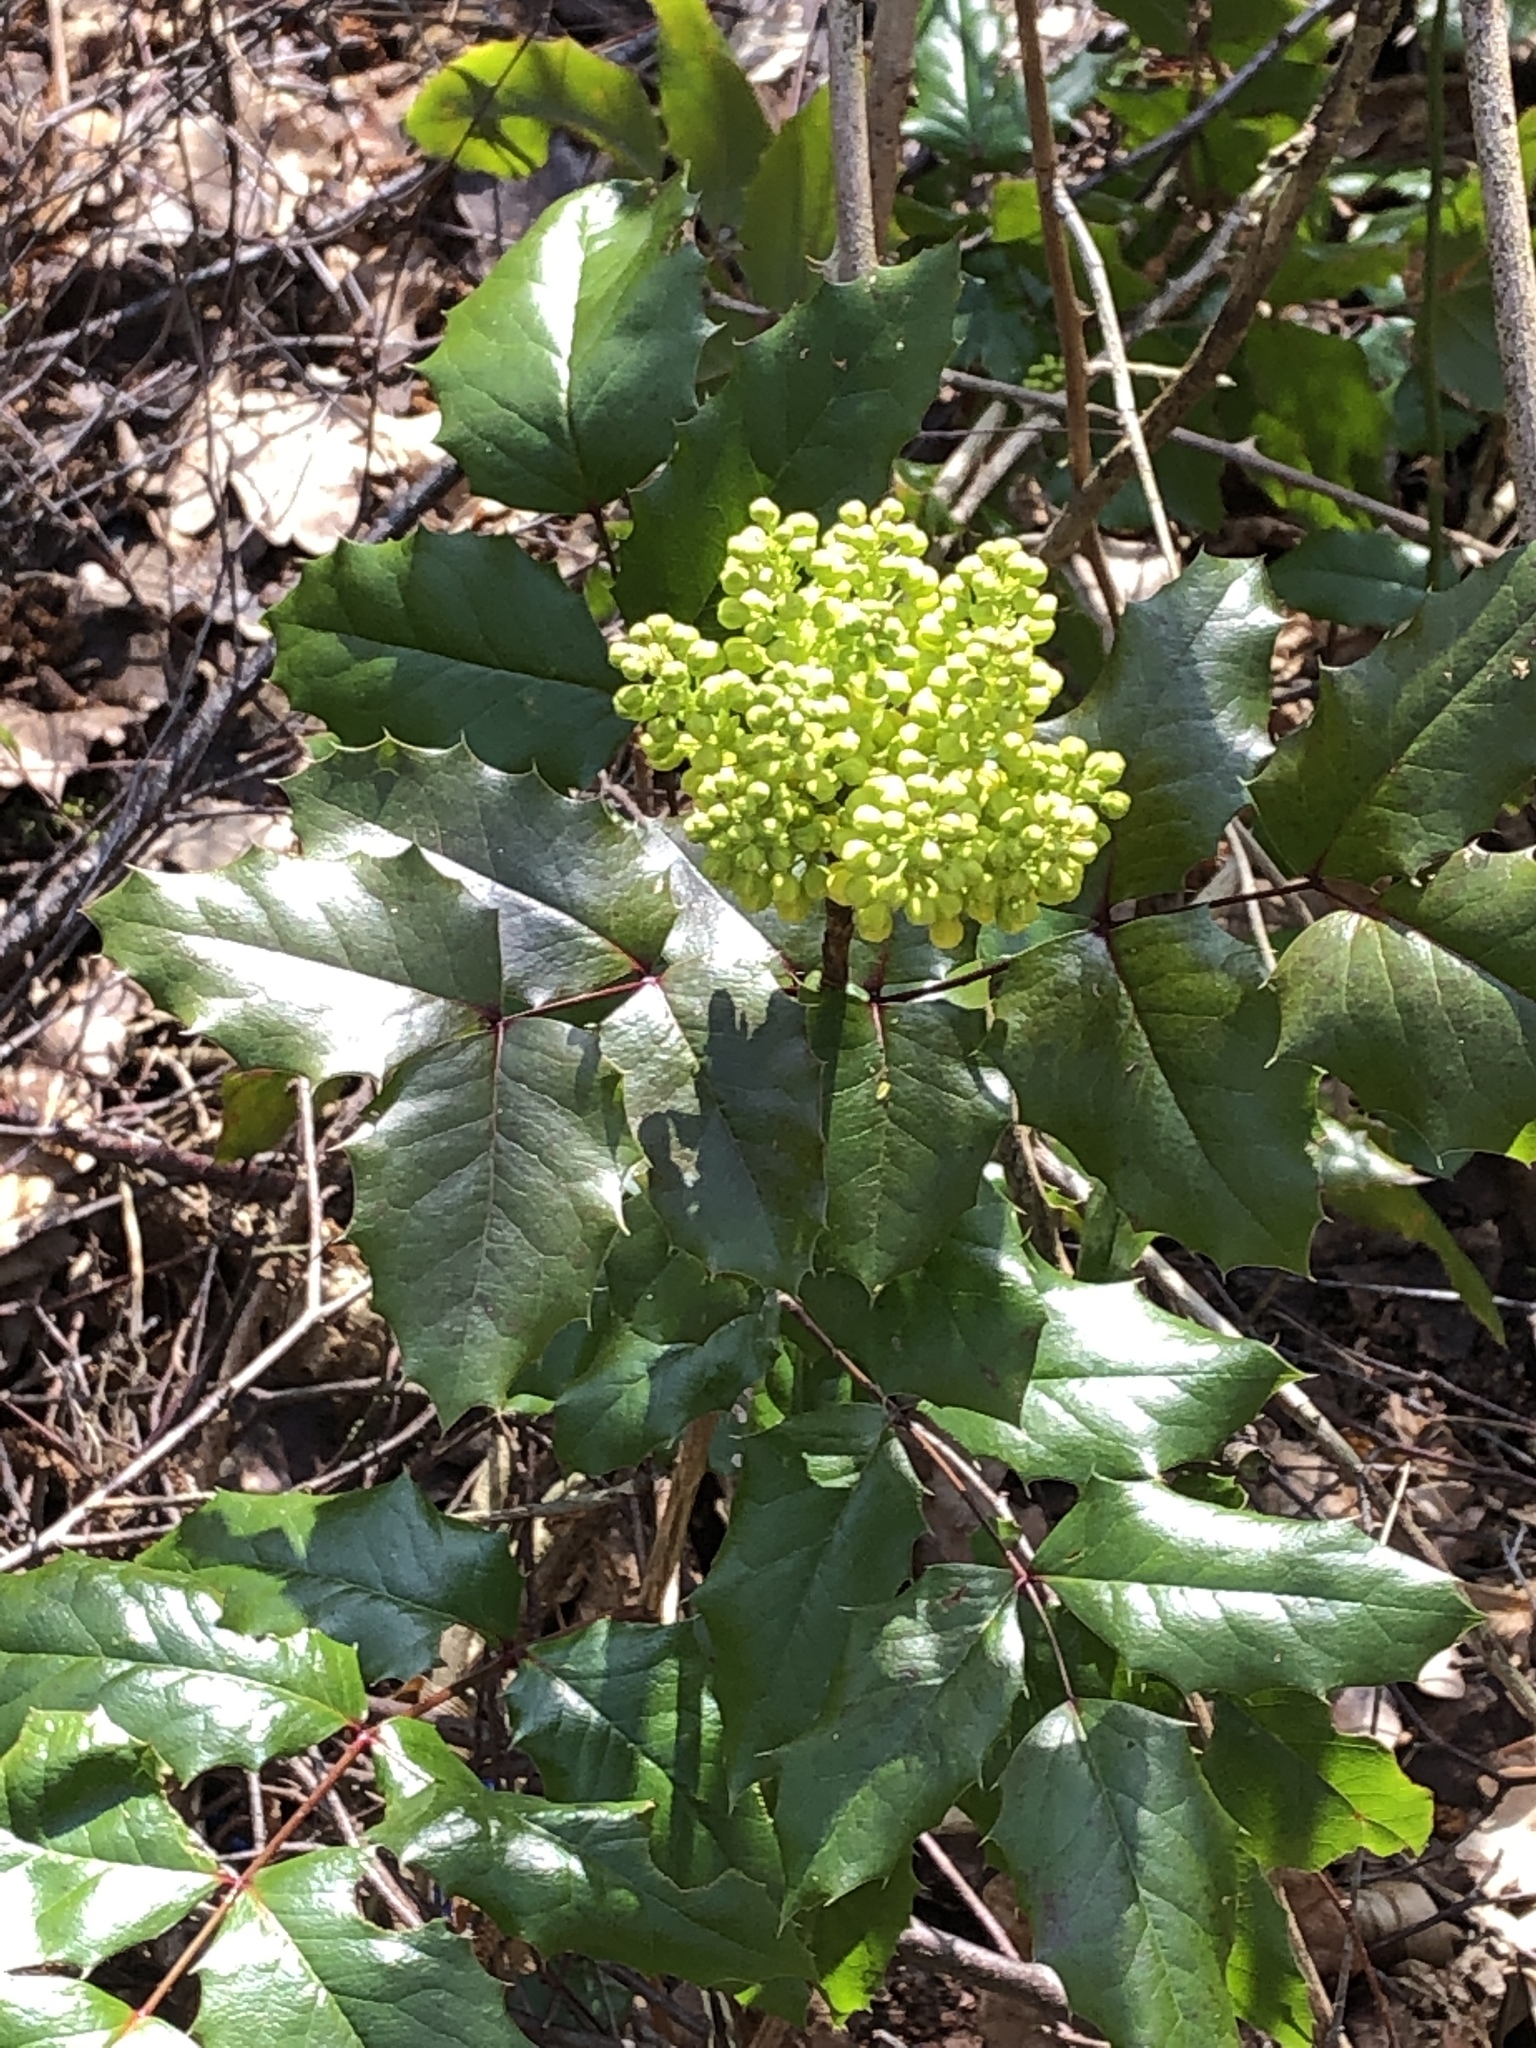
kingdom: Plantae
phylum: Tracheophyta
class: Magnoliopsida
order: Ranunculales
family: Berberidaceae
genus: Mahonia
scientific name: Mahonia aquifolium
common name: Oregon-grape
